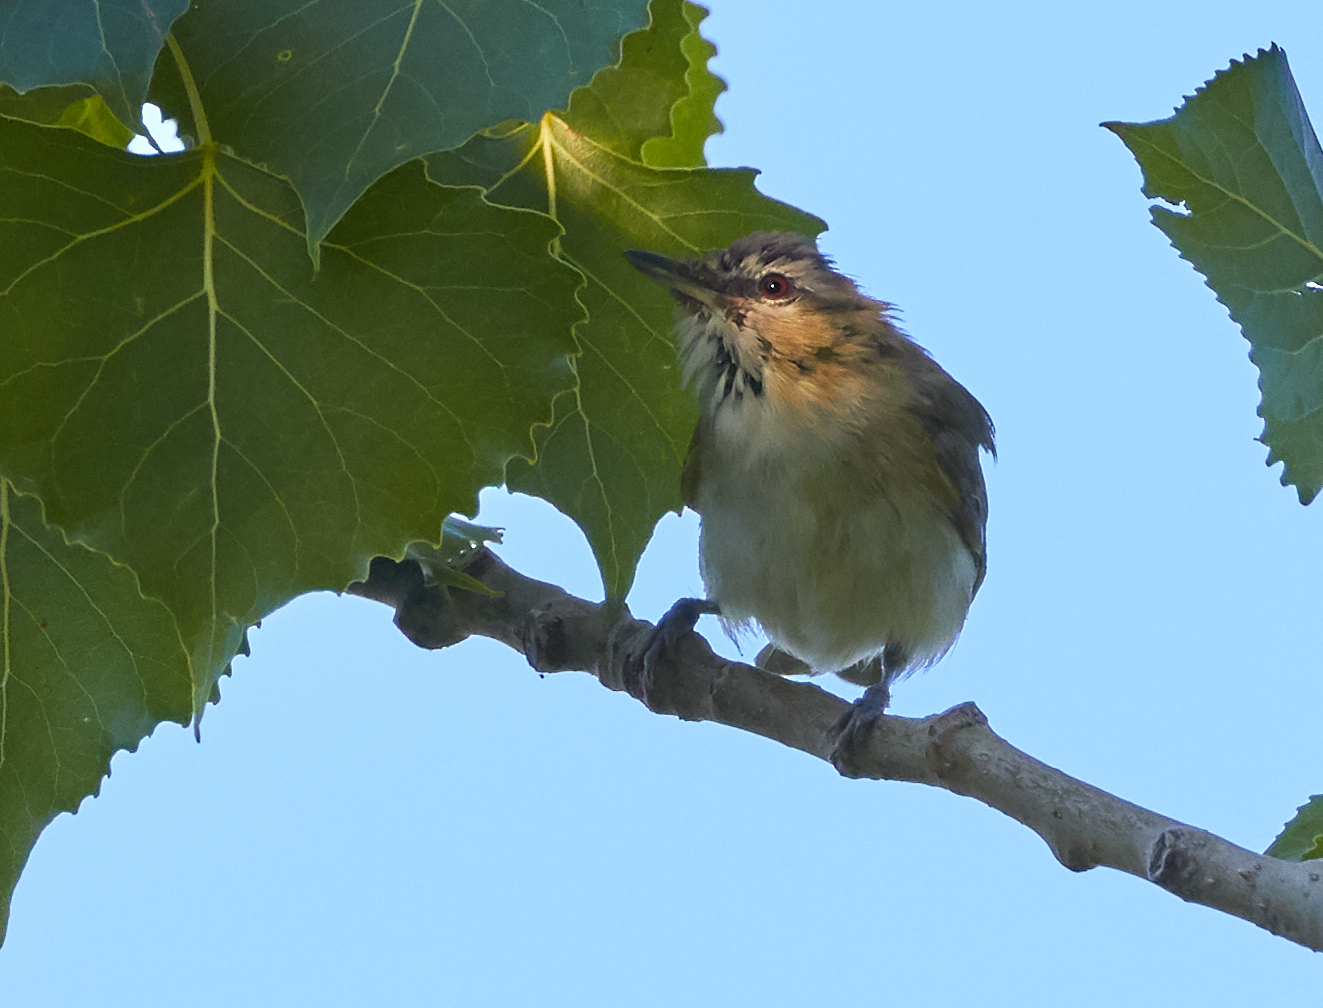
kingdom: Animalia
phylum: Chordata
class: Aves
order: Passeriformes
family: Vireonidae
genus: Vireo
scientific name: Vireo olivaceus
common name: Red-eyed vireo
